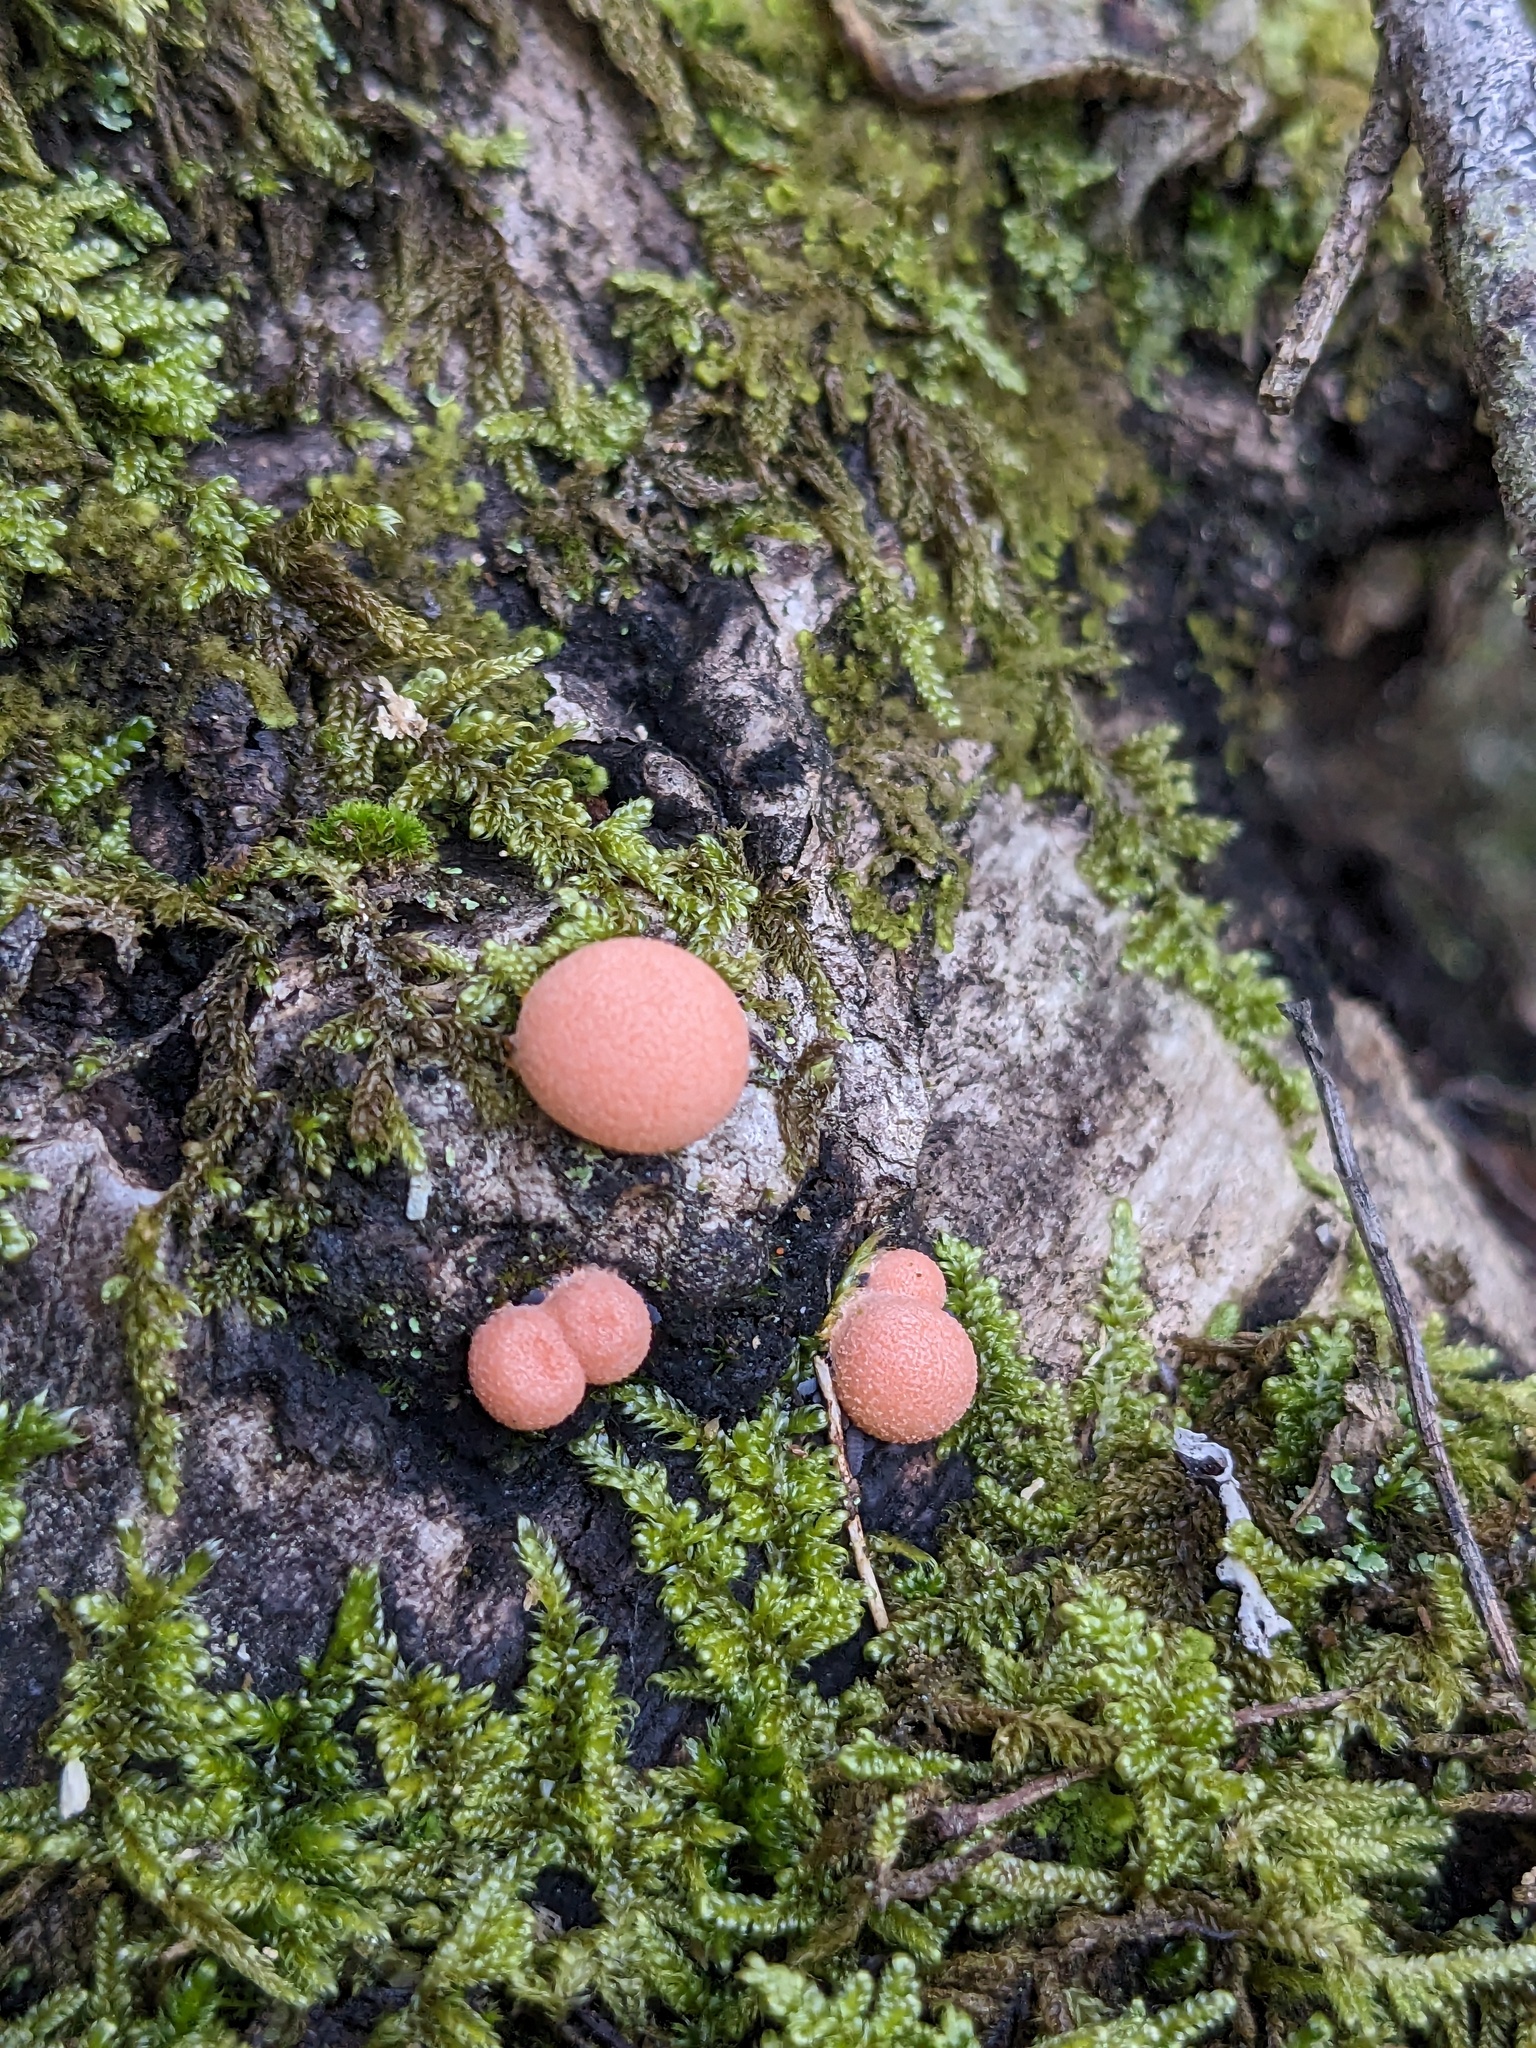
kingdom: Protozoa
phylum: Mycetozoa
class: Myxomycetes
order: Cribrariales
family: Tubiferaceae
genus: Lycogala
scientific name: Lycogala epidendrum
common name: Wolf's milk
